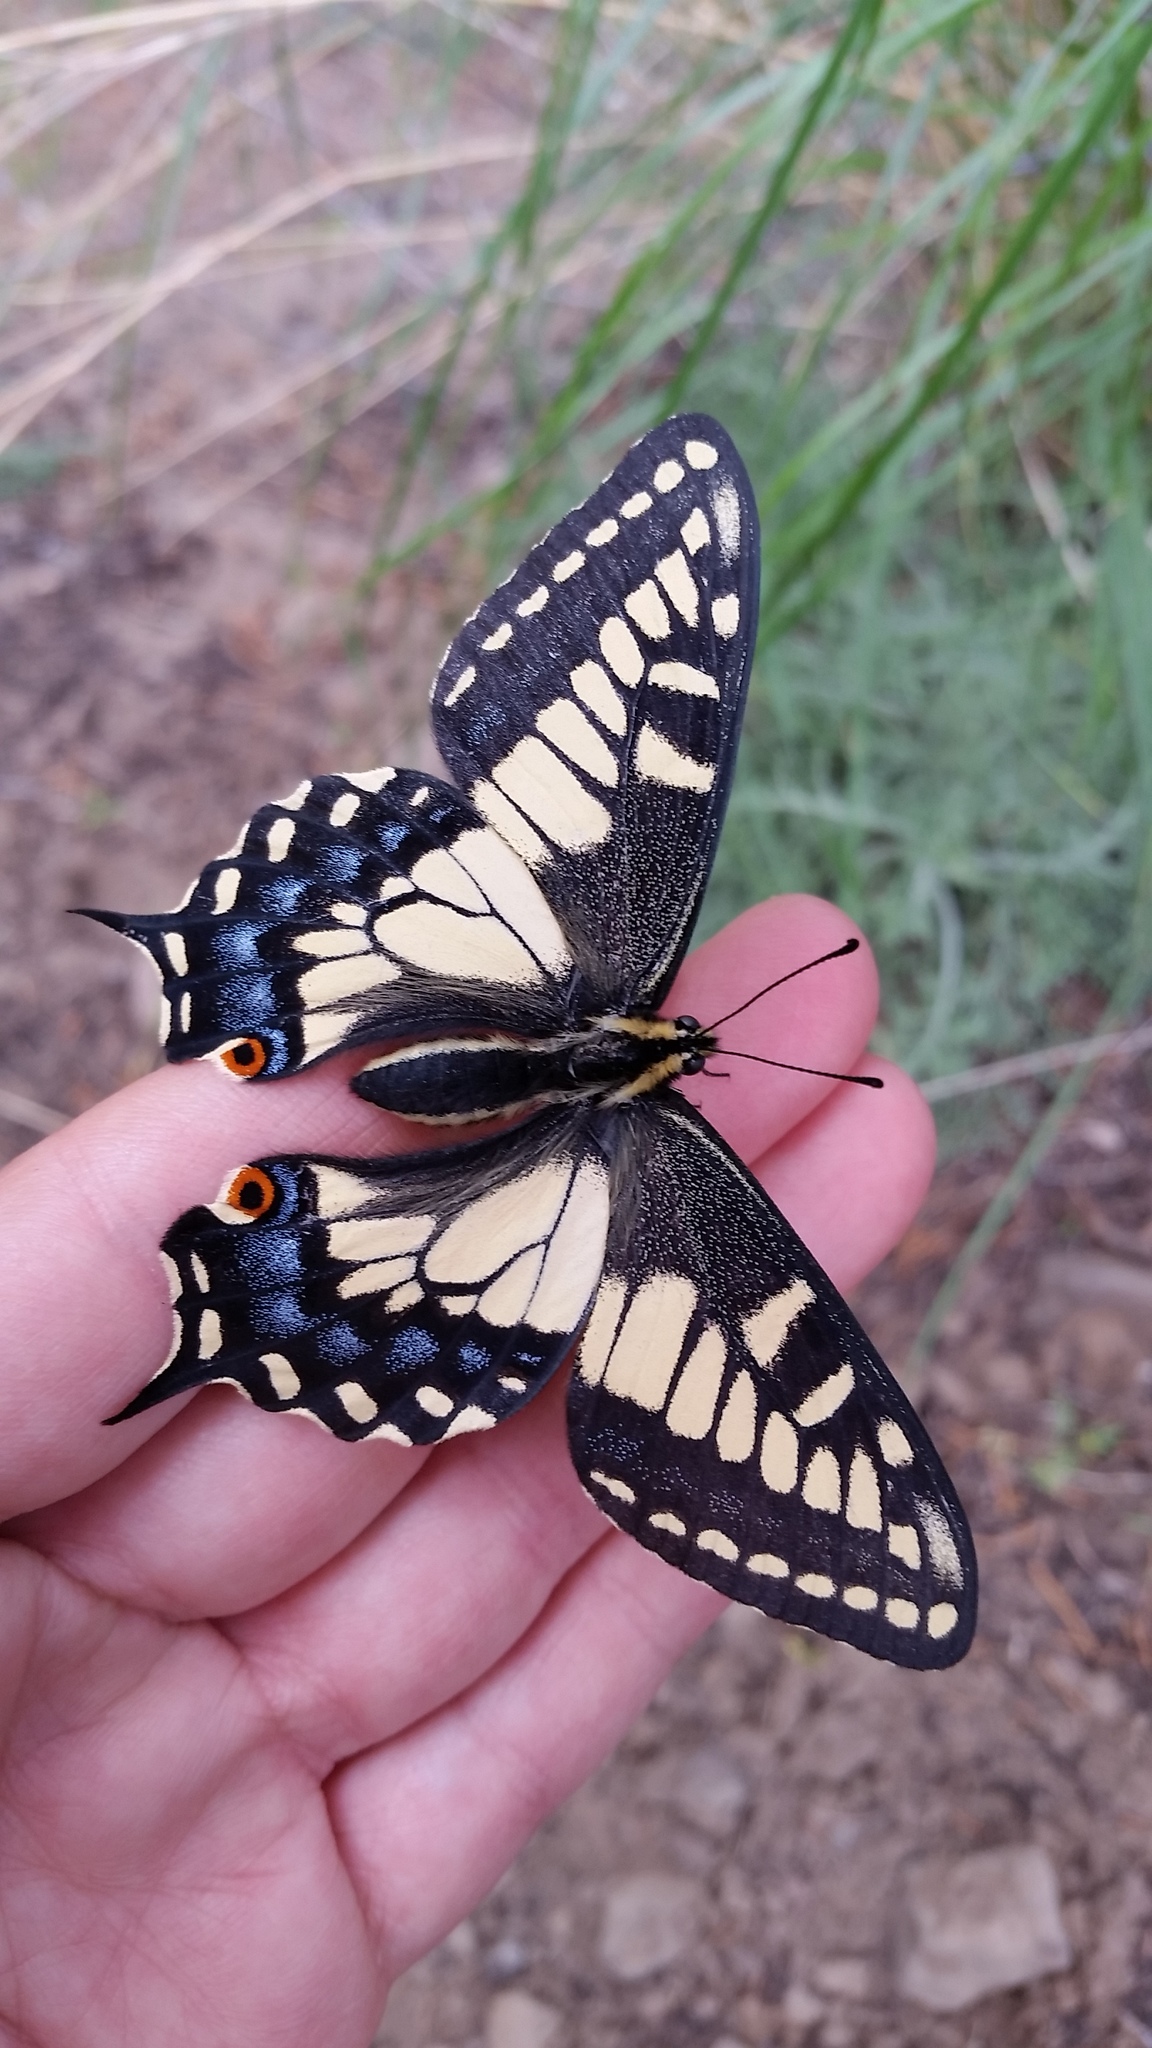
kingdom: Animalia
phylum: Arthropoda
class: Insecta
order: Lepidoptera
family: Papilionidae
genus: Papilio
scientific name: Papilio zelicaon
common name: Anise swallowtail
